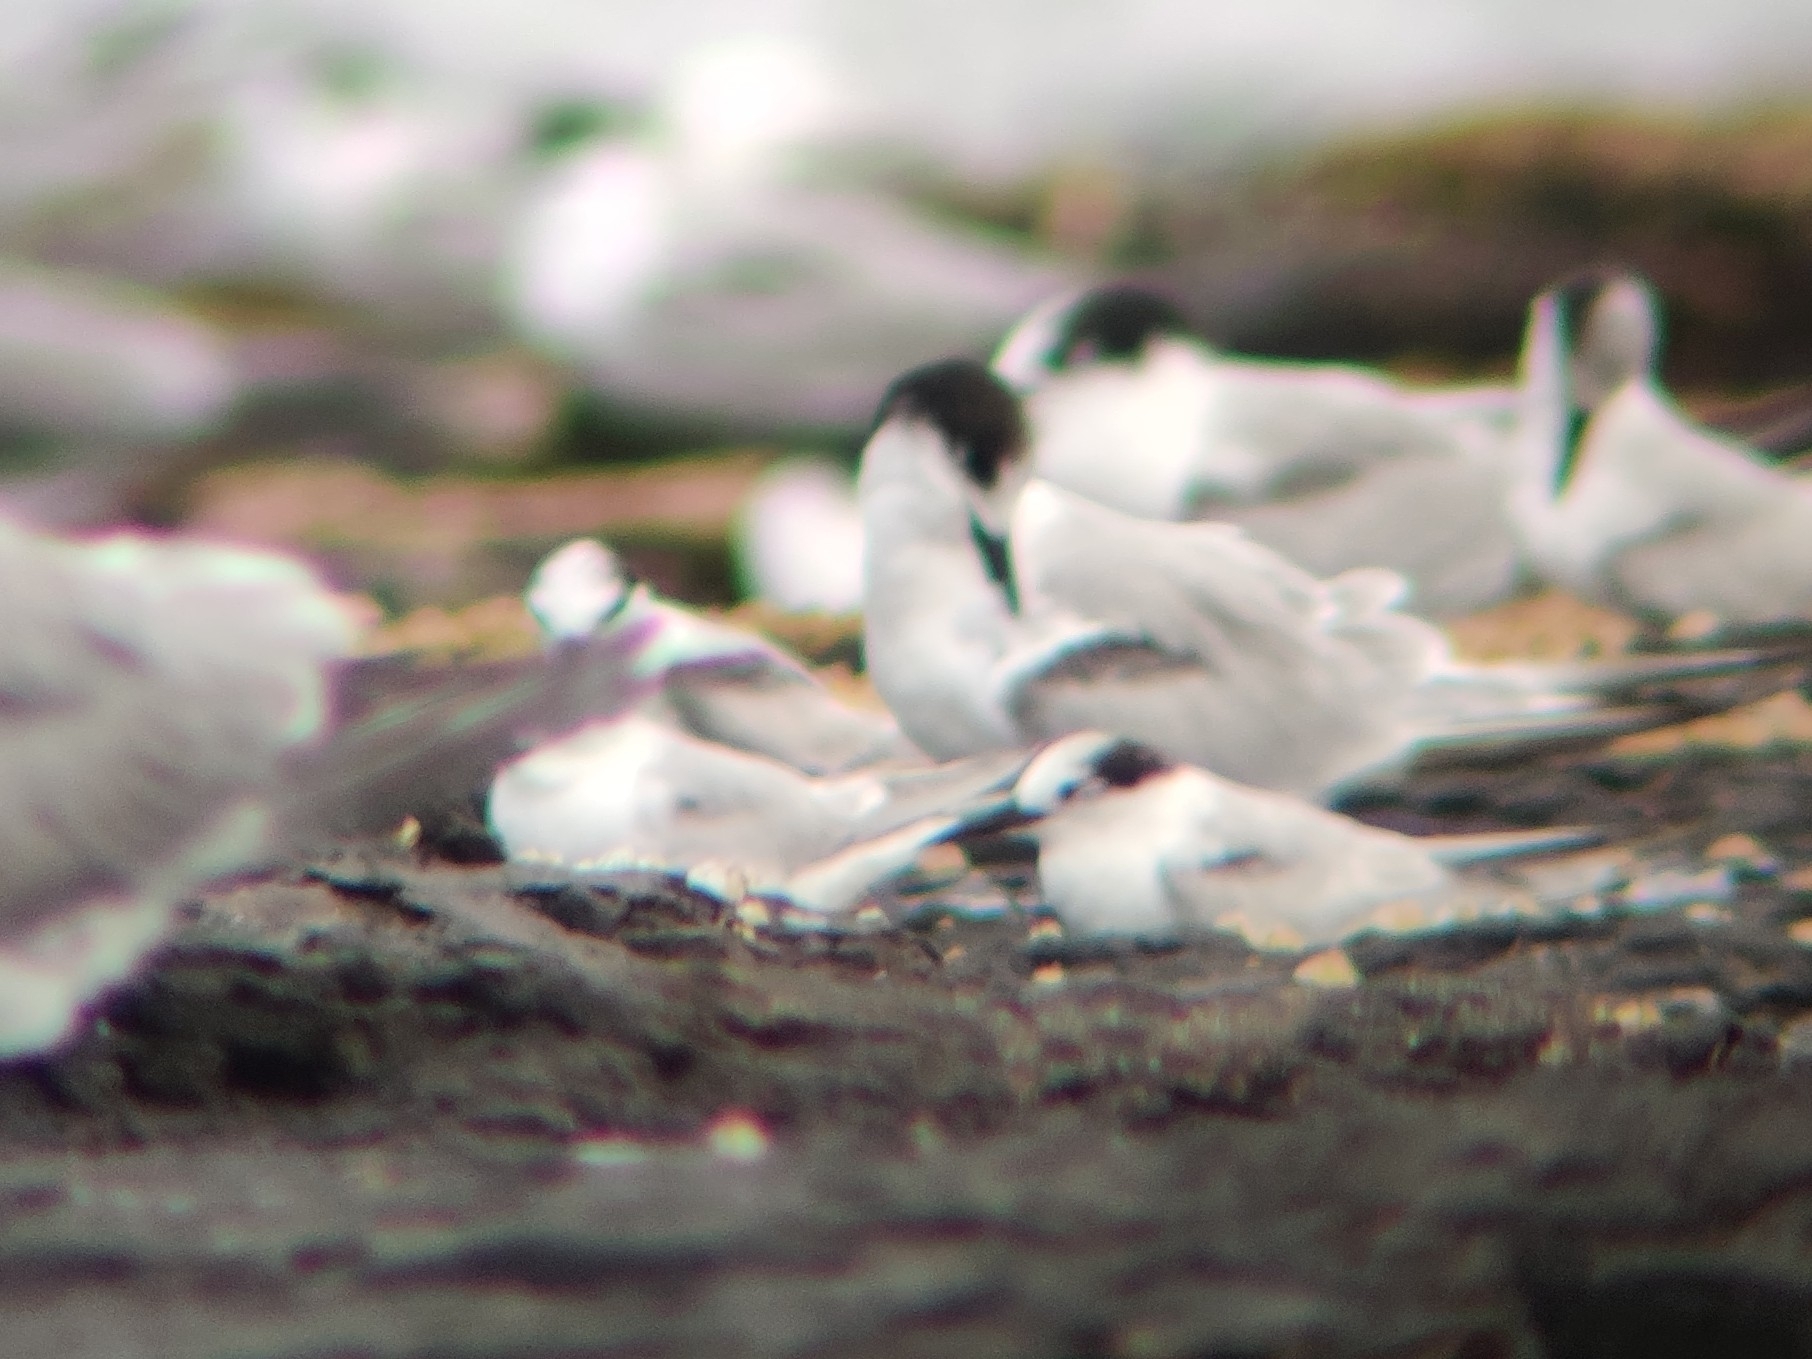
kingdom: Animalia
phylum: Chordata
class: Aves
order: Charadriiformes
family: Laridae
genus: Sternula
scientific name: Sternula albifrons
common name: Little tern
